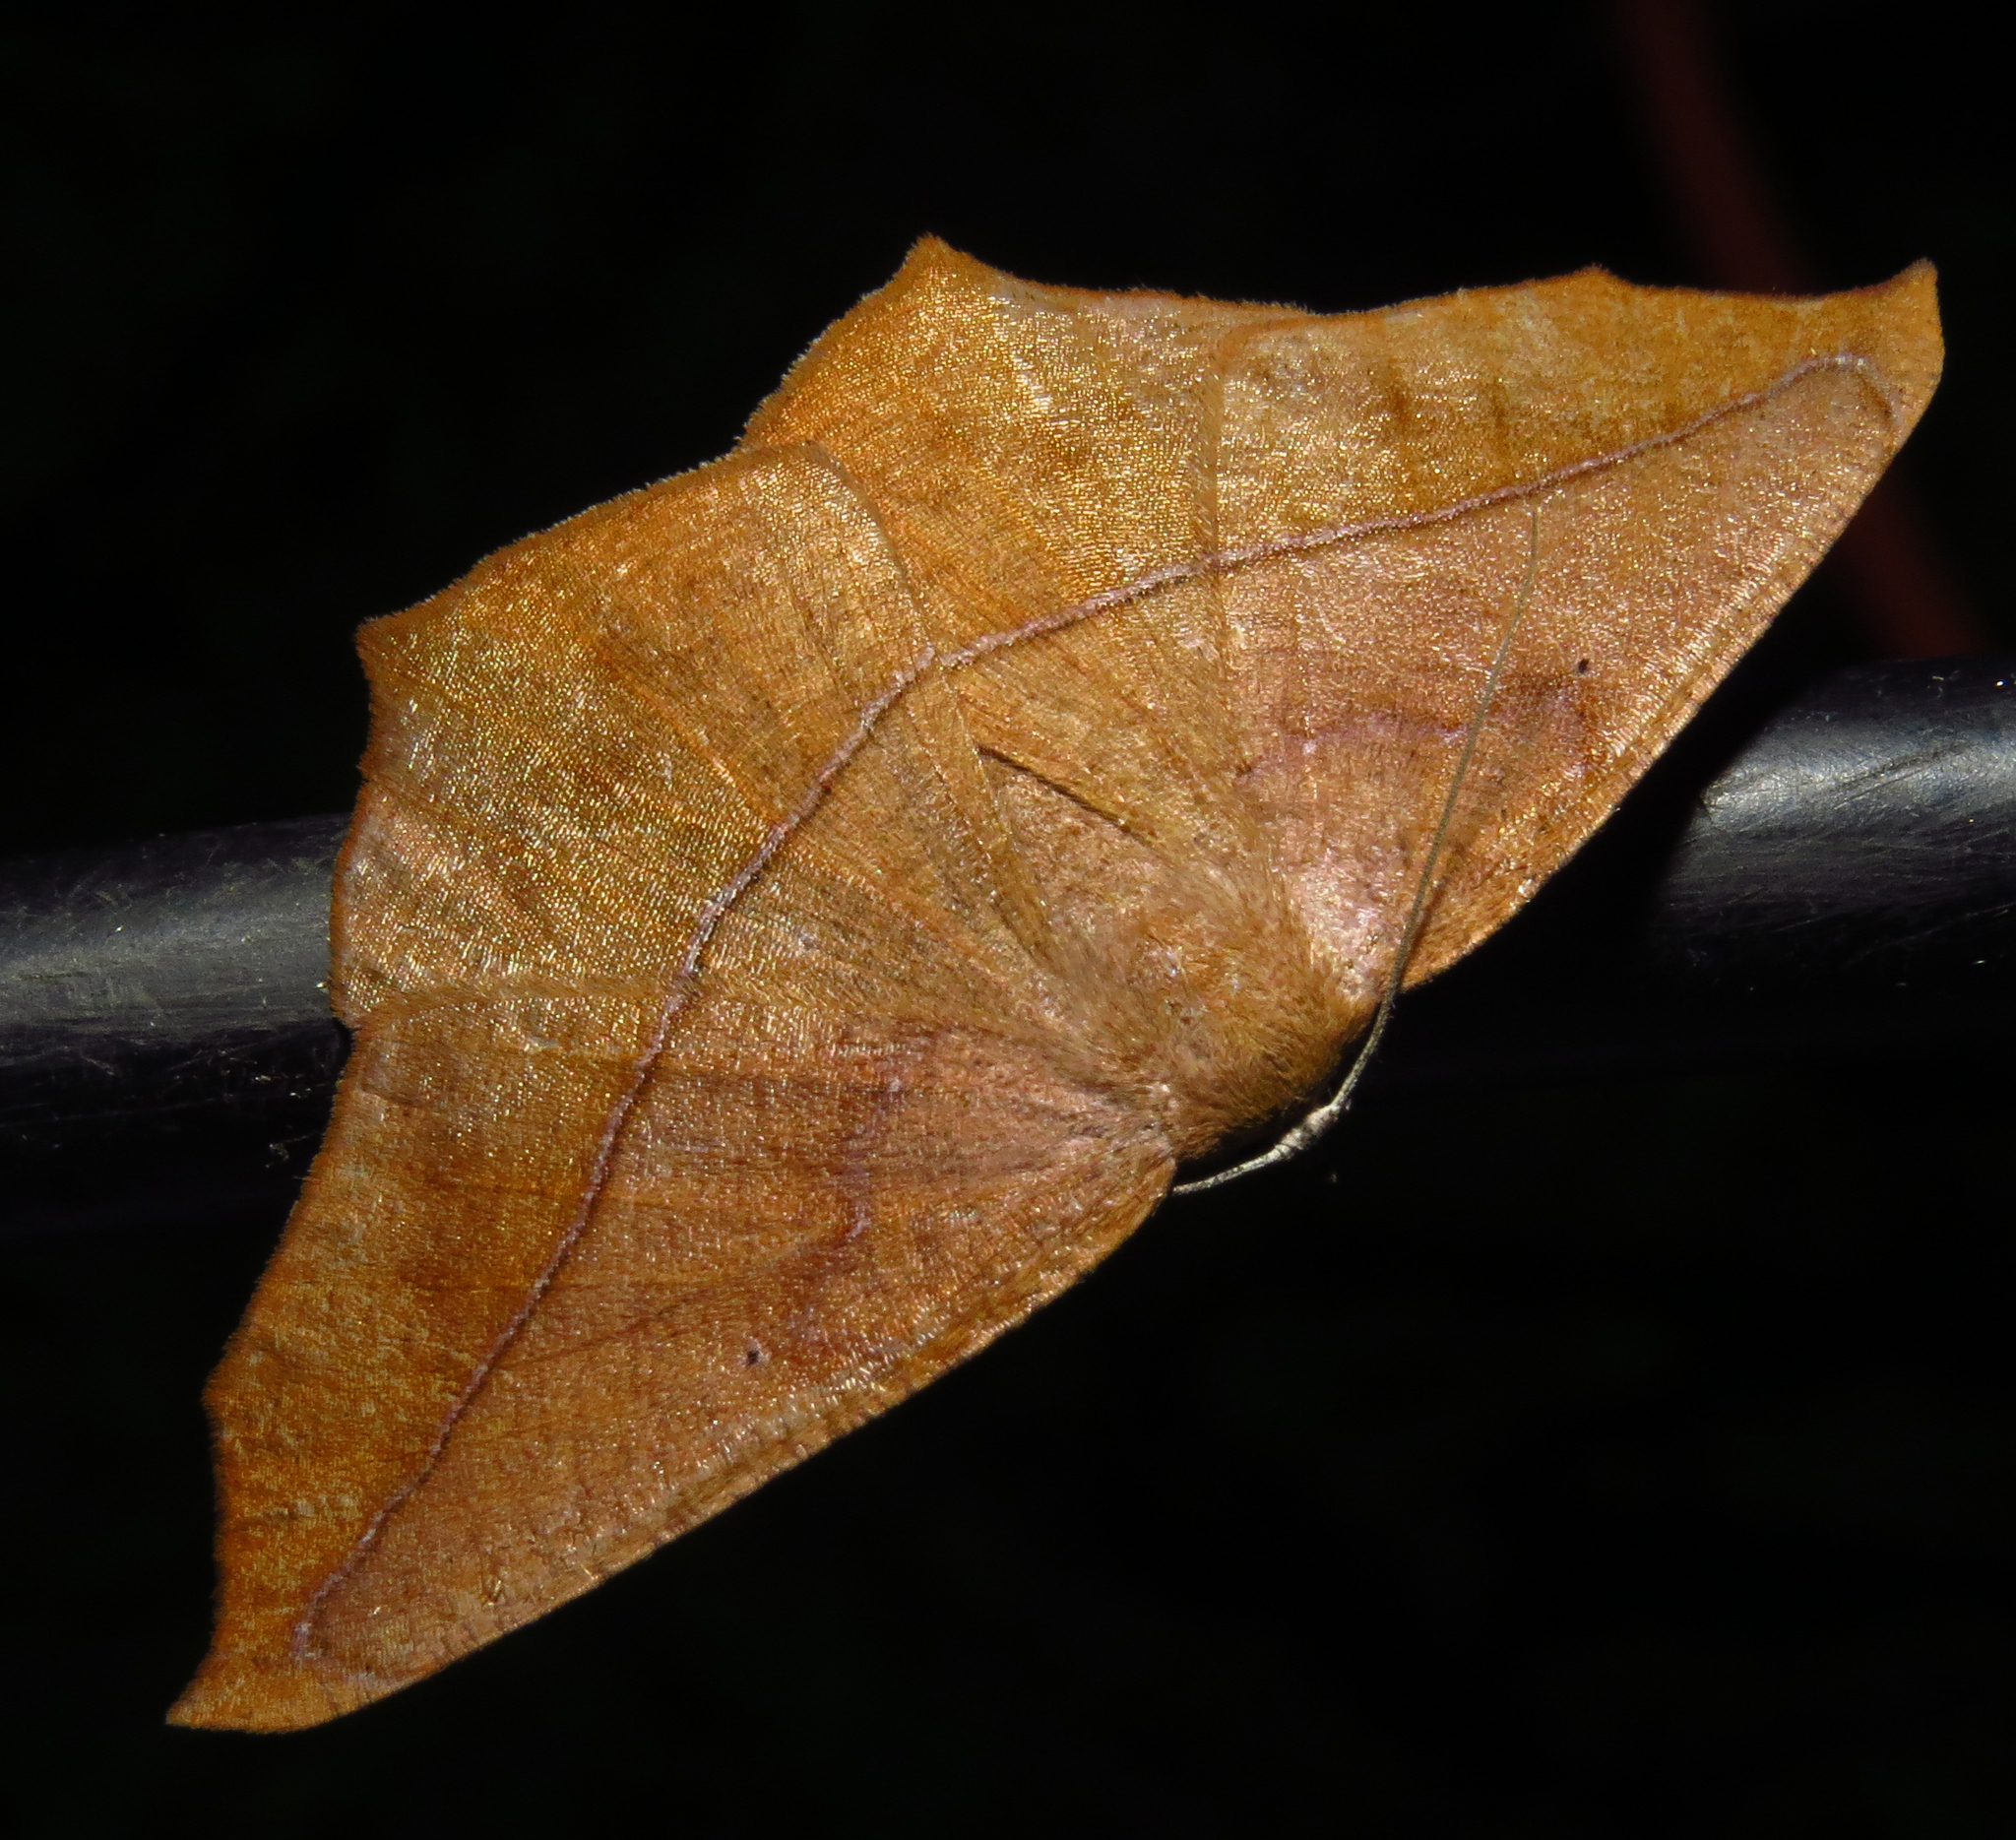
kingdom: Animalia
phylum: Arthropoda
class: Insecta
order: Lepidoptera
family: Geometridae
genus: Prochoerodes
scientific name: Prochoerodes lineola
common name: Large maple spanworm
